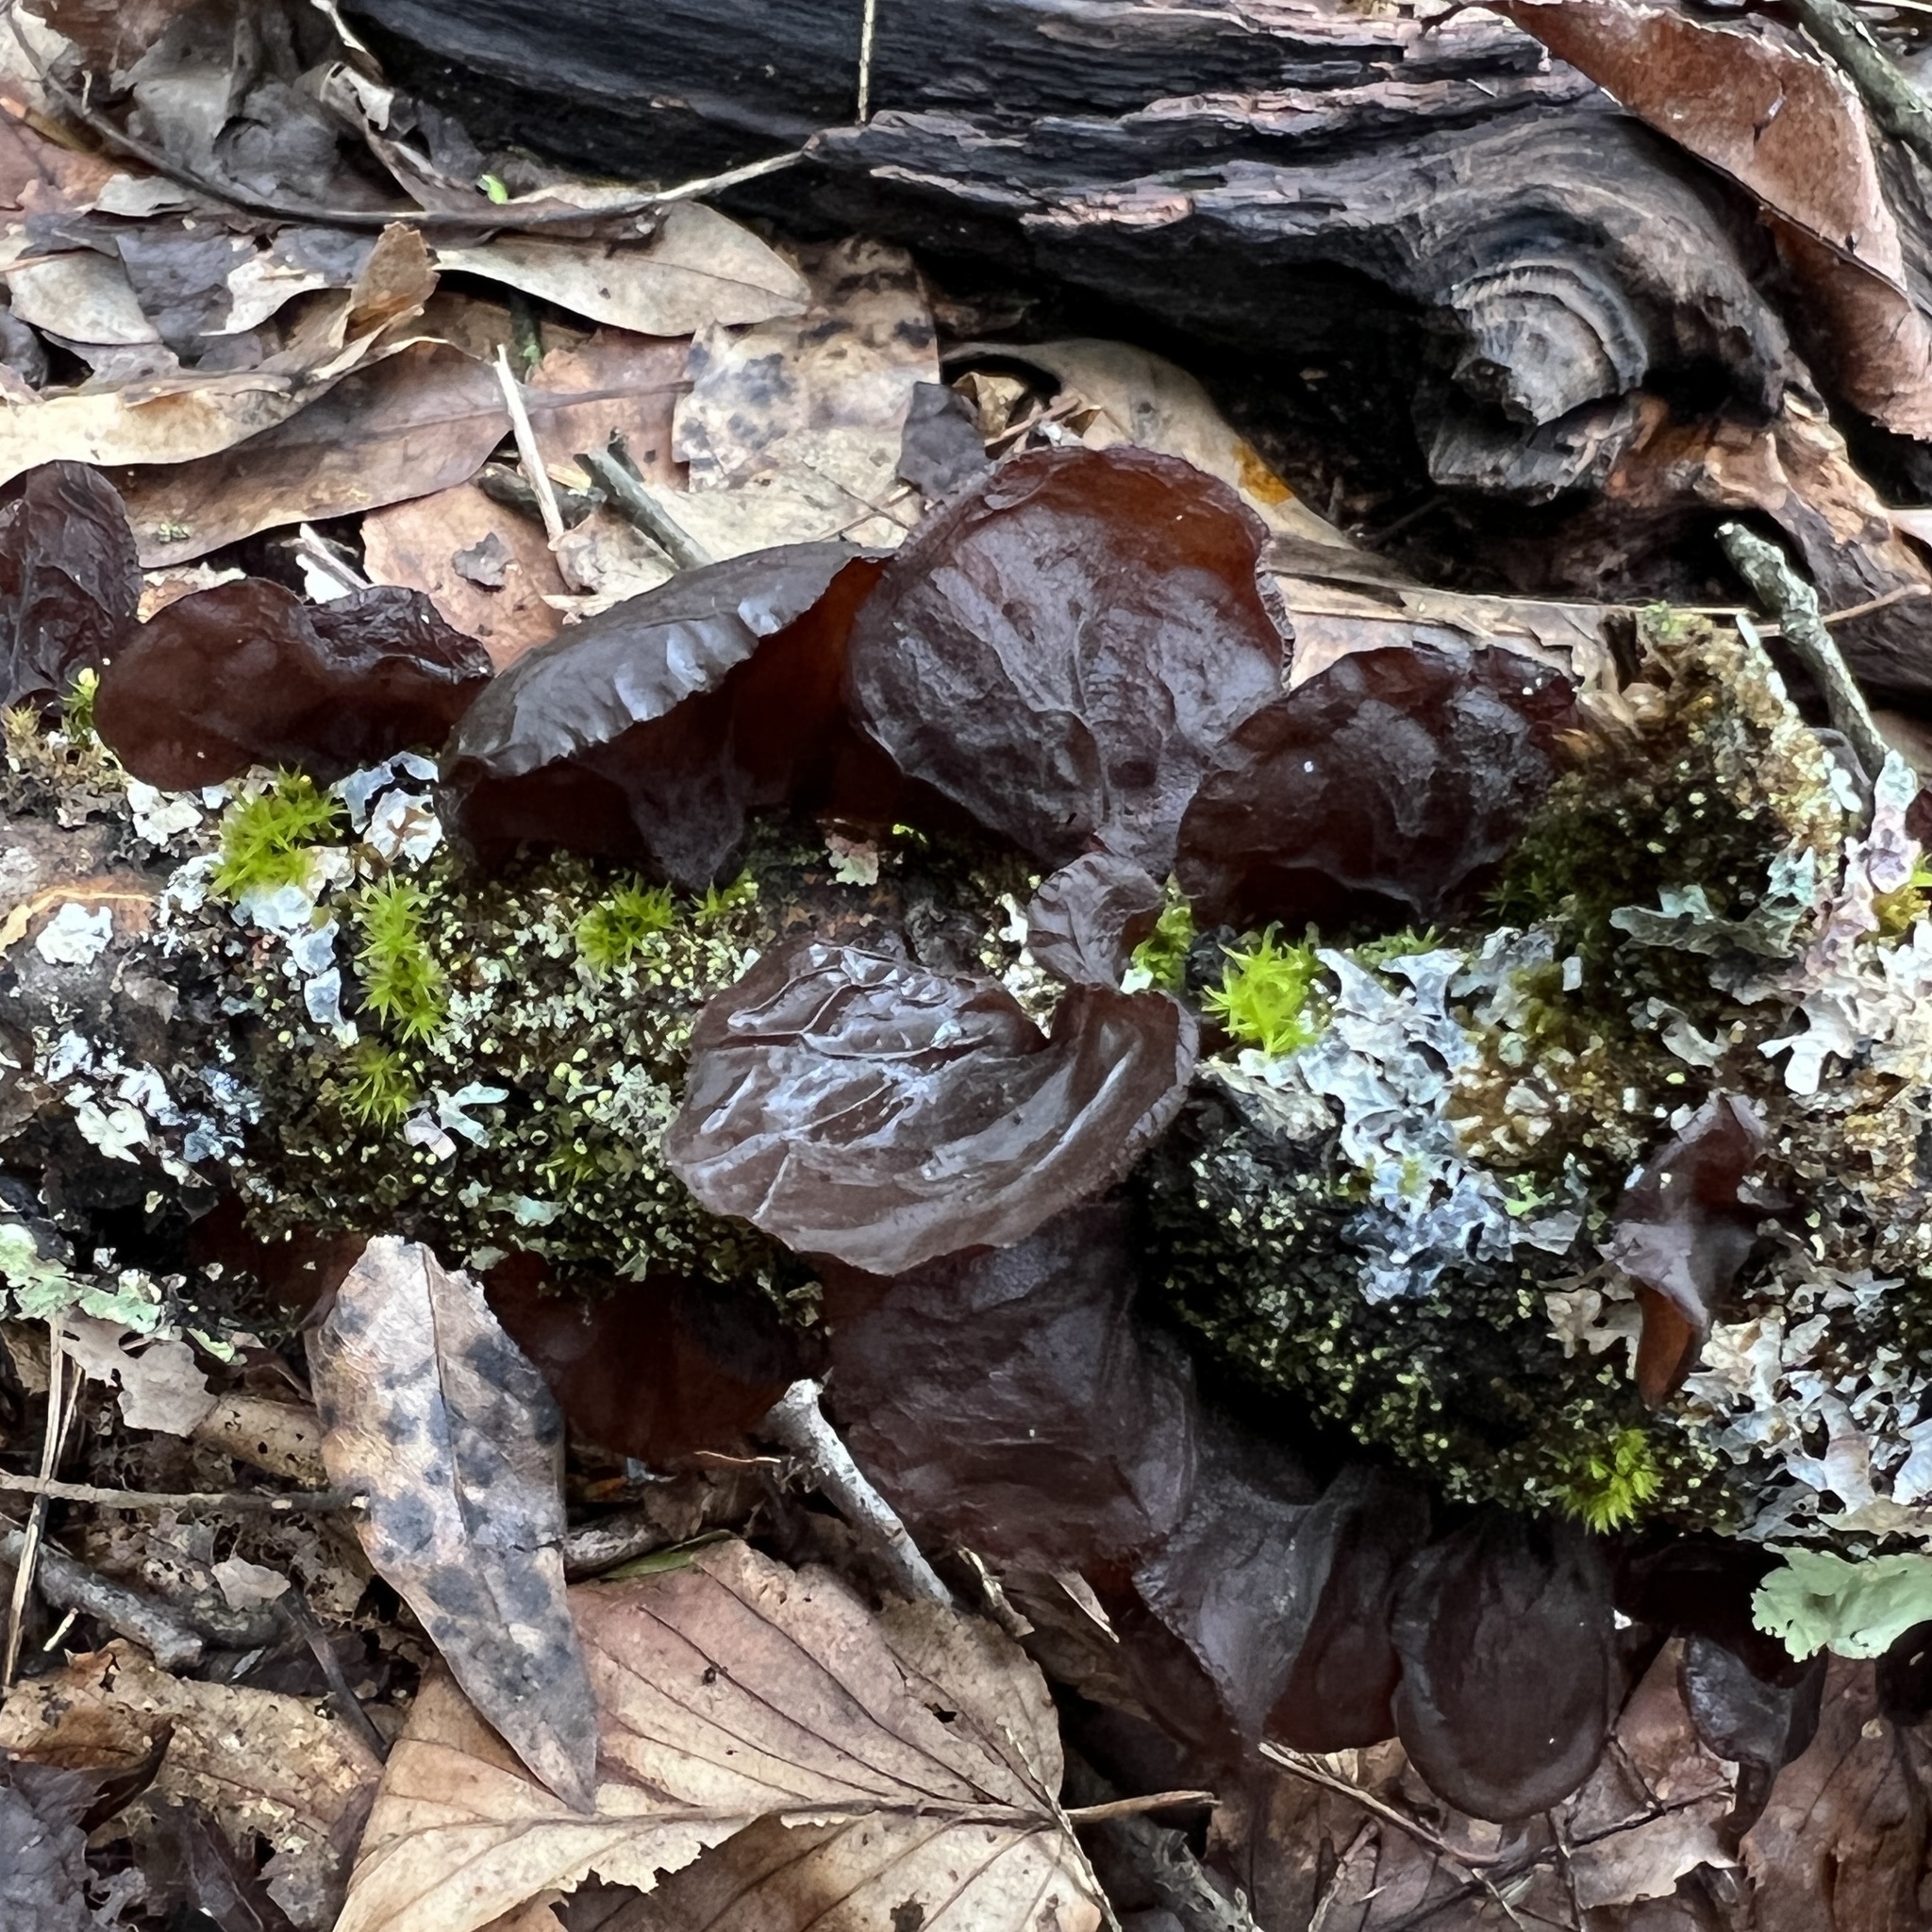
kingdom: Fungi
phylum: Basidiomycota
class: Agaricomycetes
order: Auriculariales
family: Auriculariaceae
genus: Exidia
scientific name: Exidia
